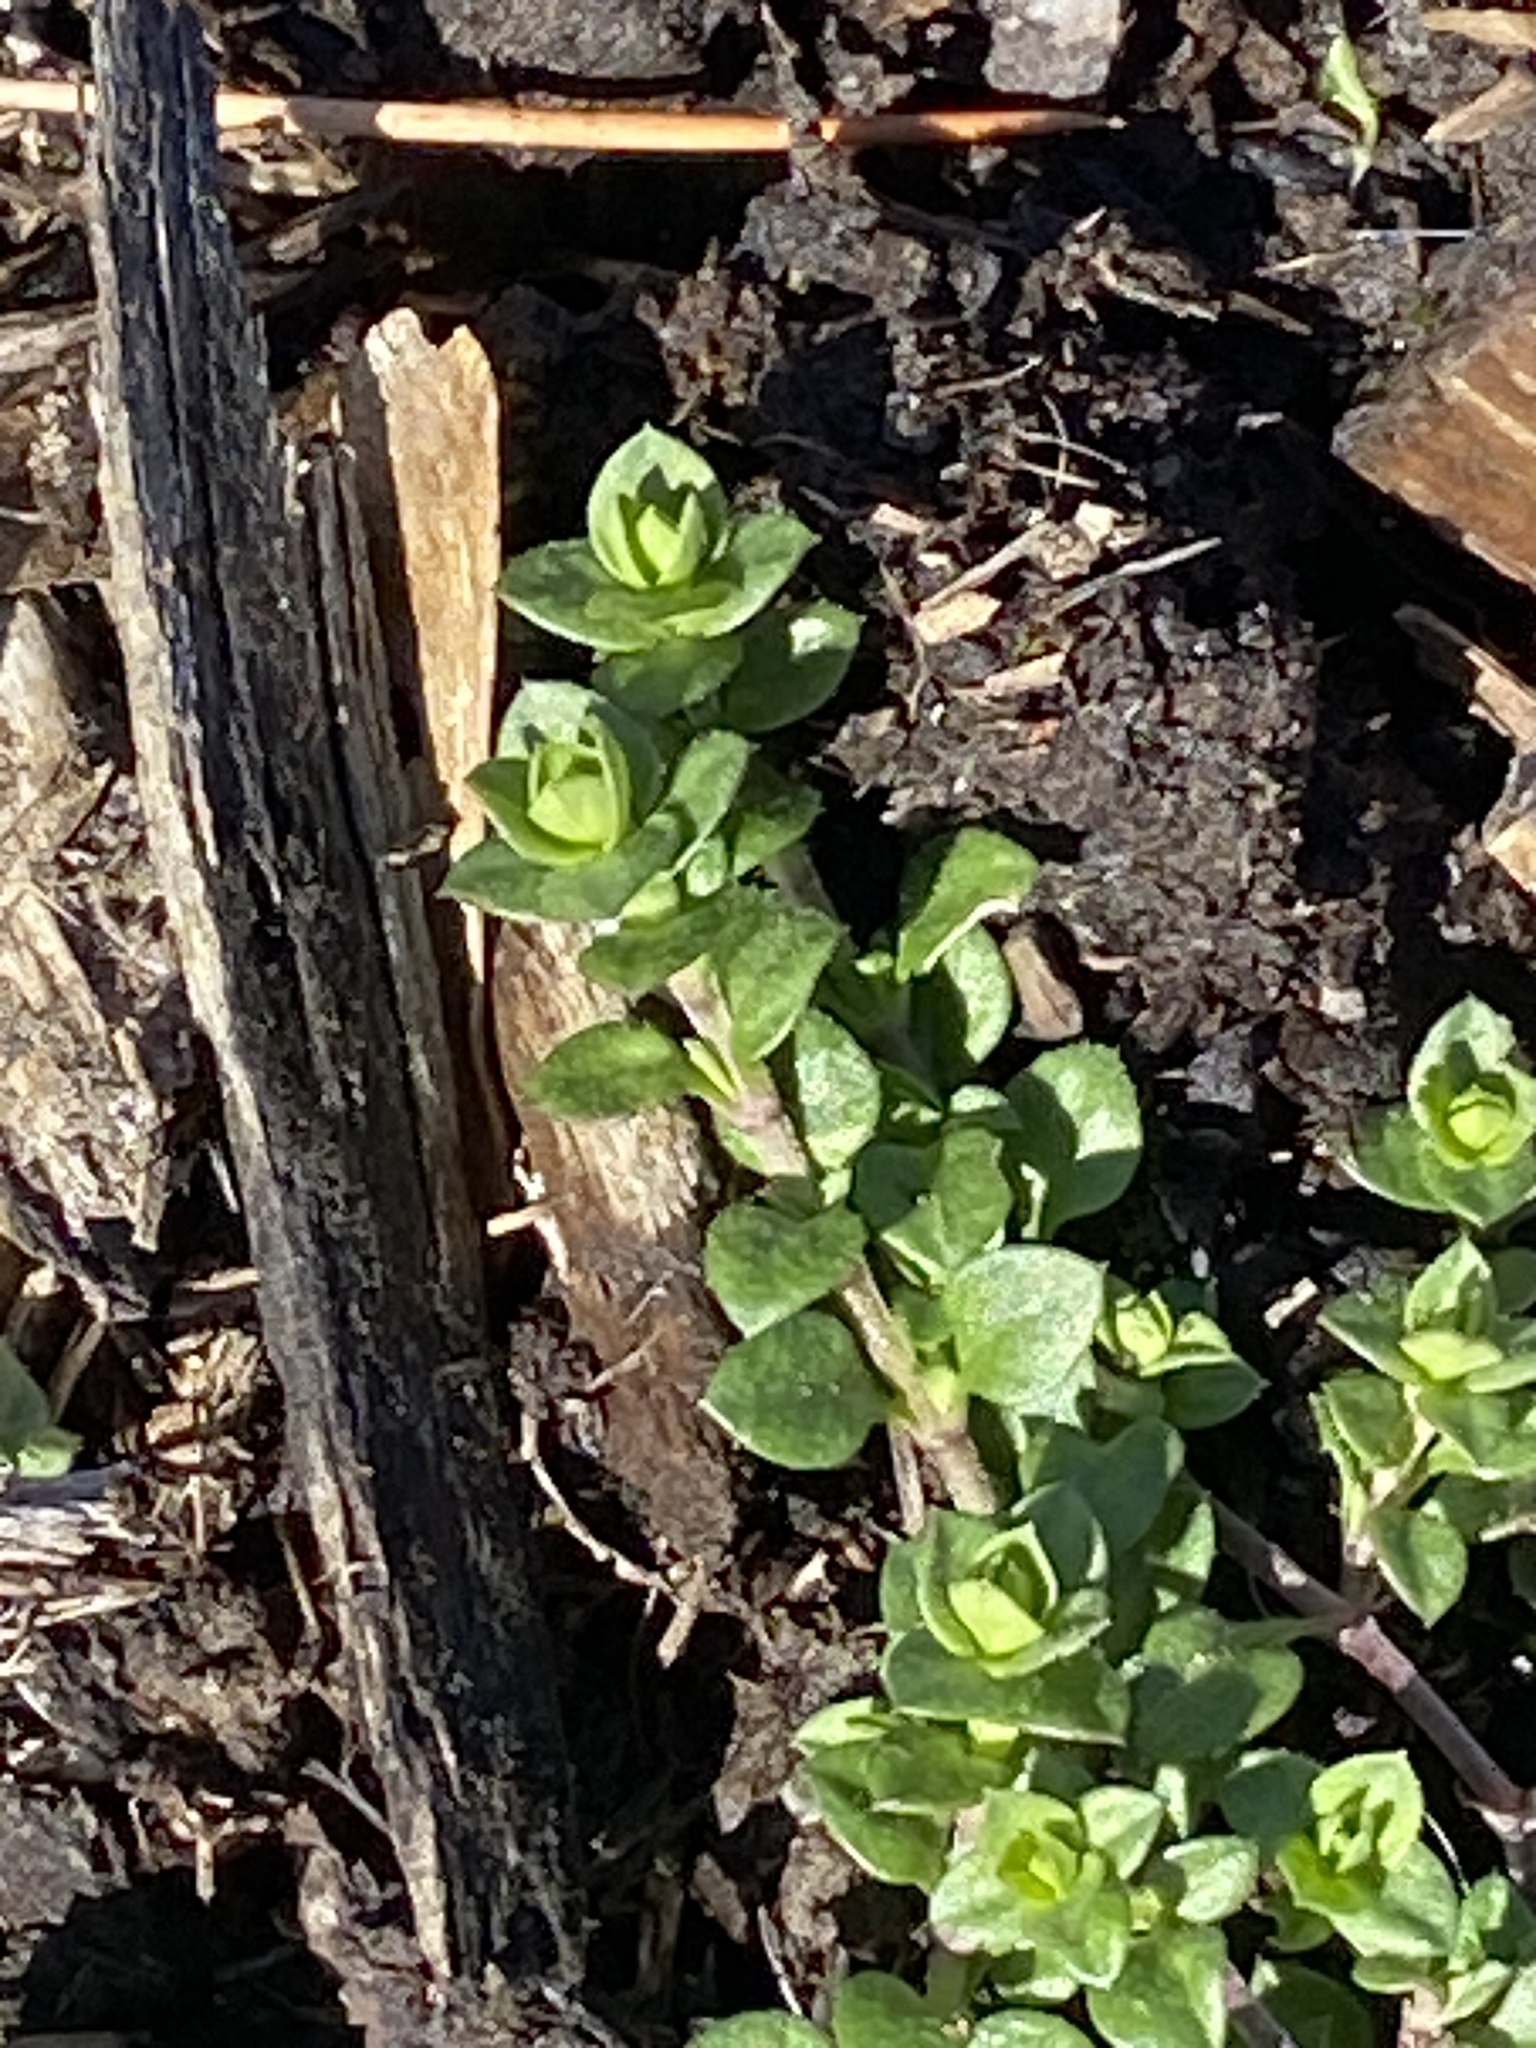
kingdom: Plantae
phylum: Tracheophyta
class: Magnoliopsida
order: Caryophyllales
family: Caryophyllaceae
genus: Stellaria
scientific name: Stellaria media
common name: Common chickweed
